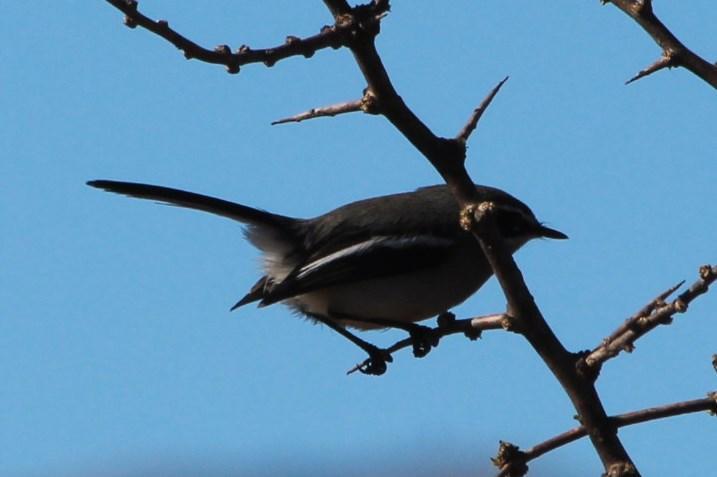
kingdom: Animalia
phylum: Chordata
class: Aves
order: Passeriformes
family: Stenostiridae
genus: Stenostira
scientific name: Stenostira scita
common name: Fairy flycatcher
